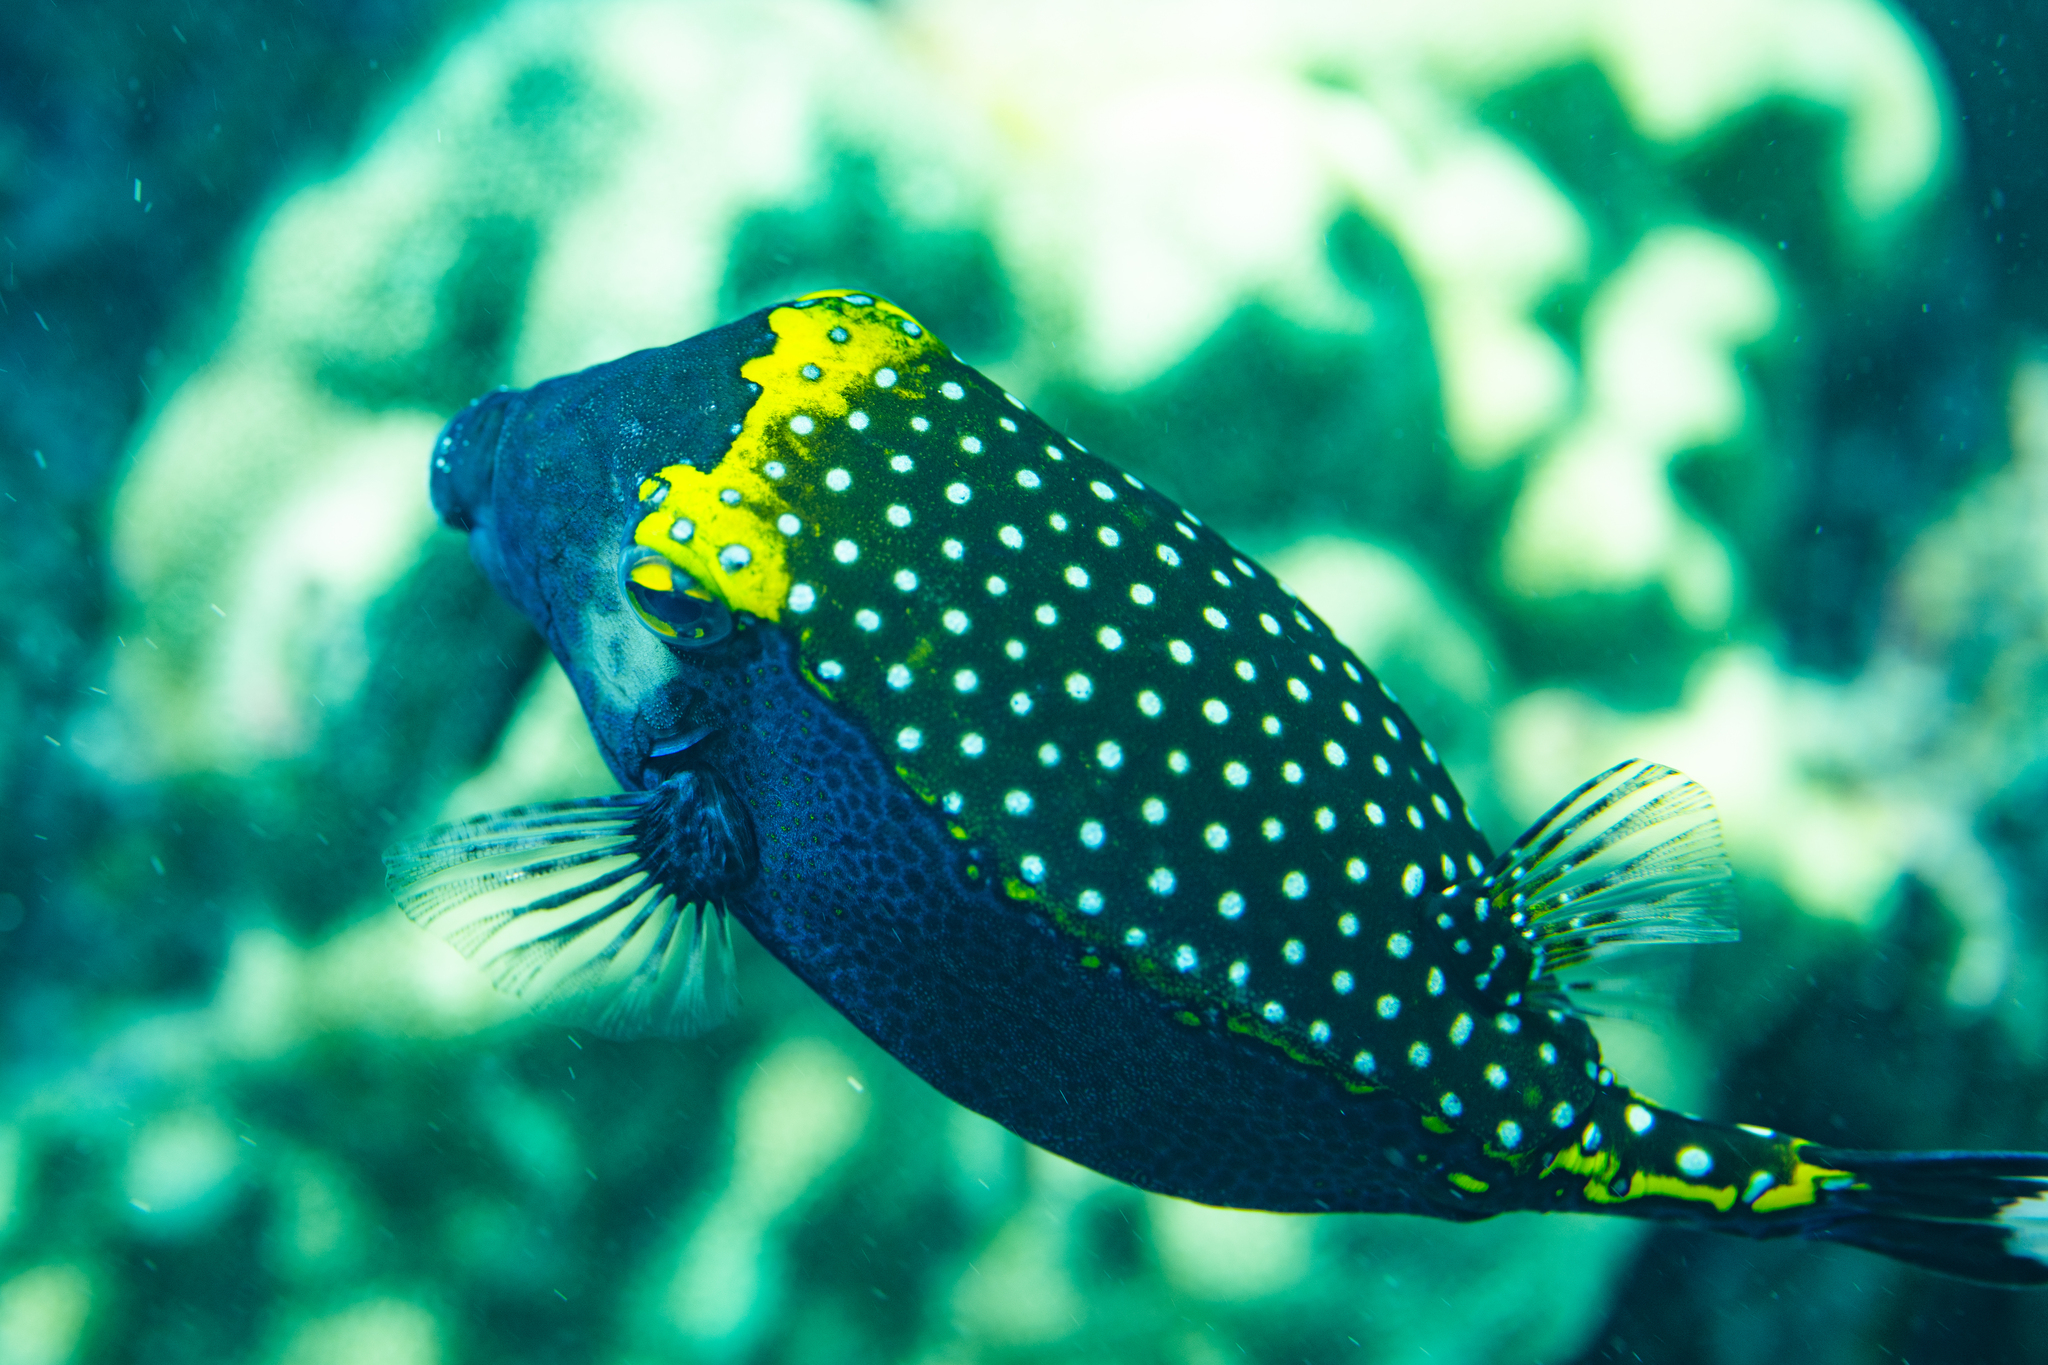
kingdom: Animalia
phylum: Chordata
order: Tetraodontiformes
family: Ostraciidae
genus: Ostracion
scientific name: Ostracion meleagris
